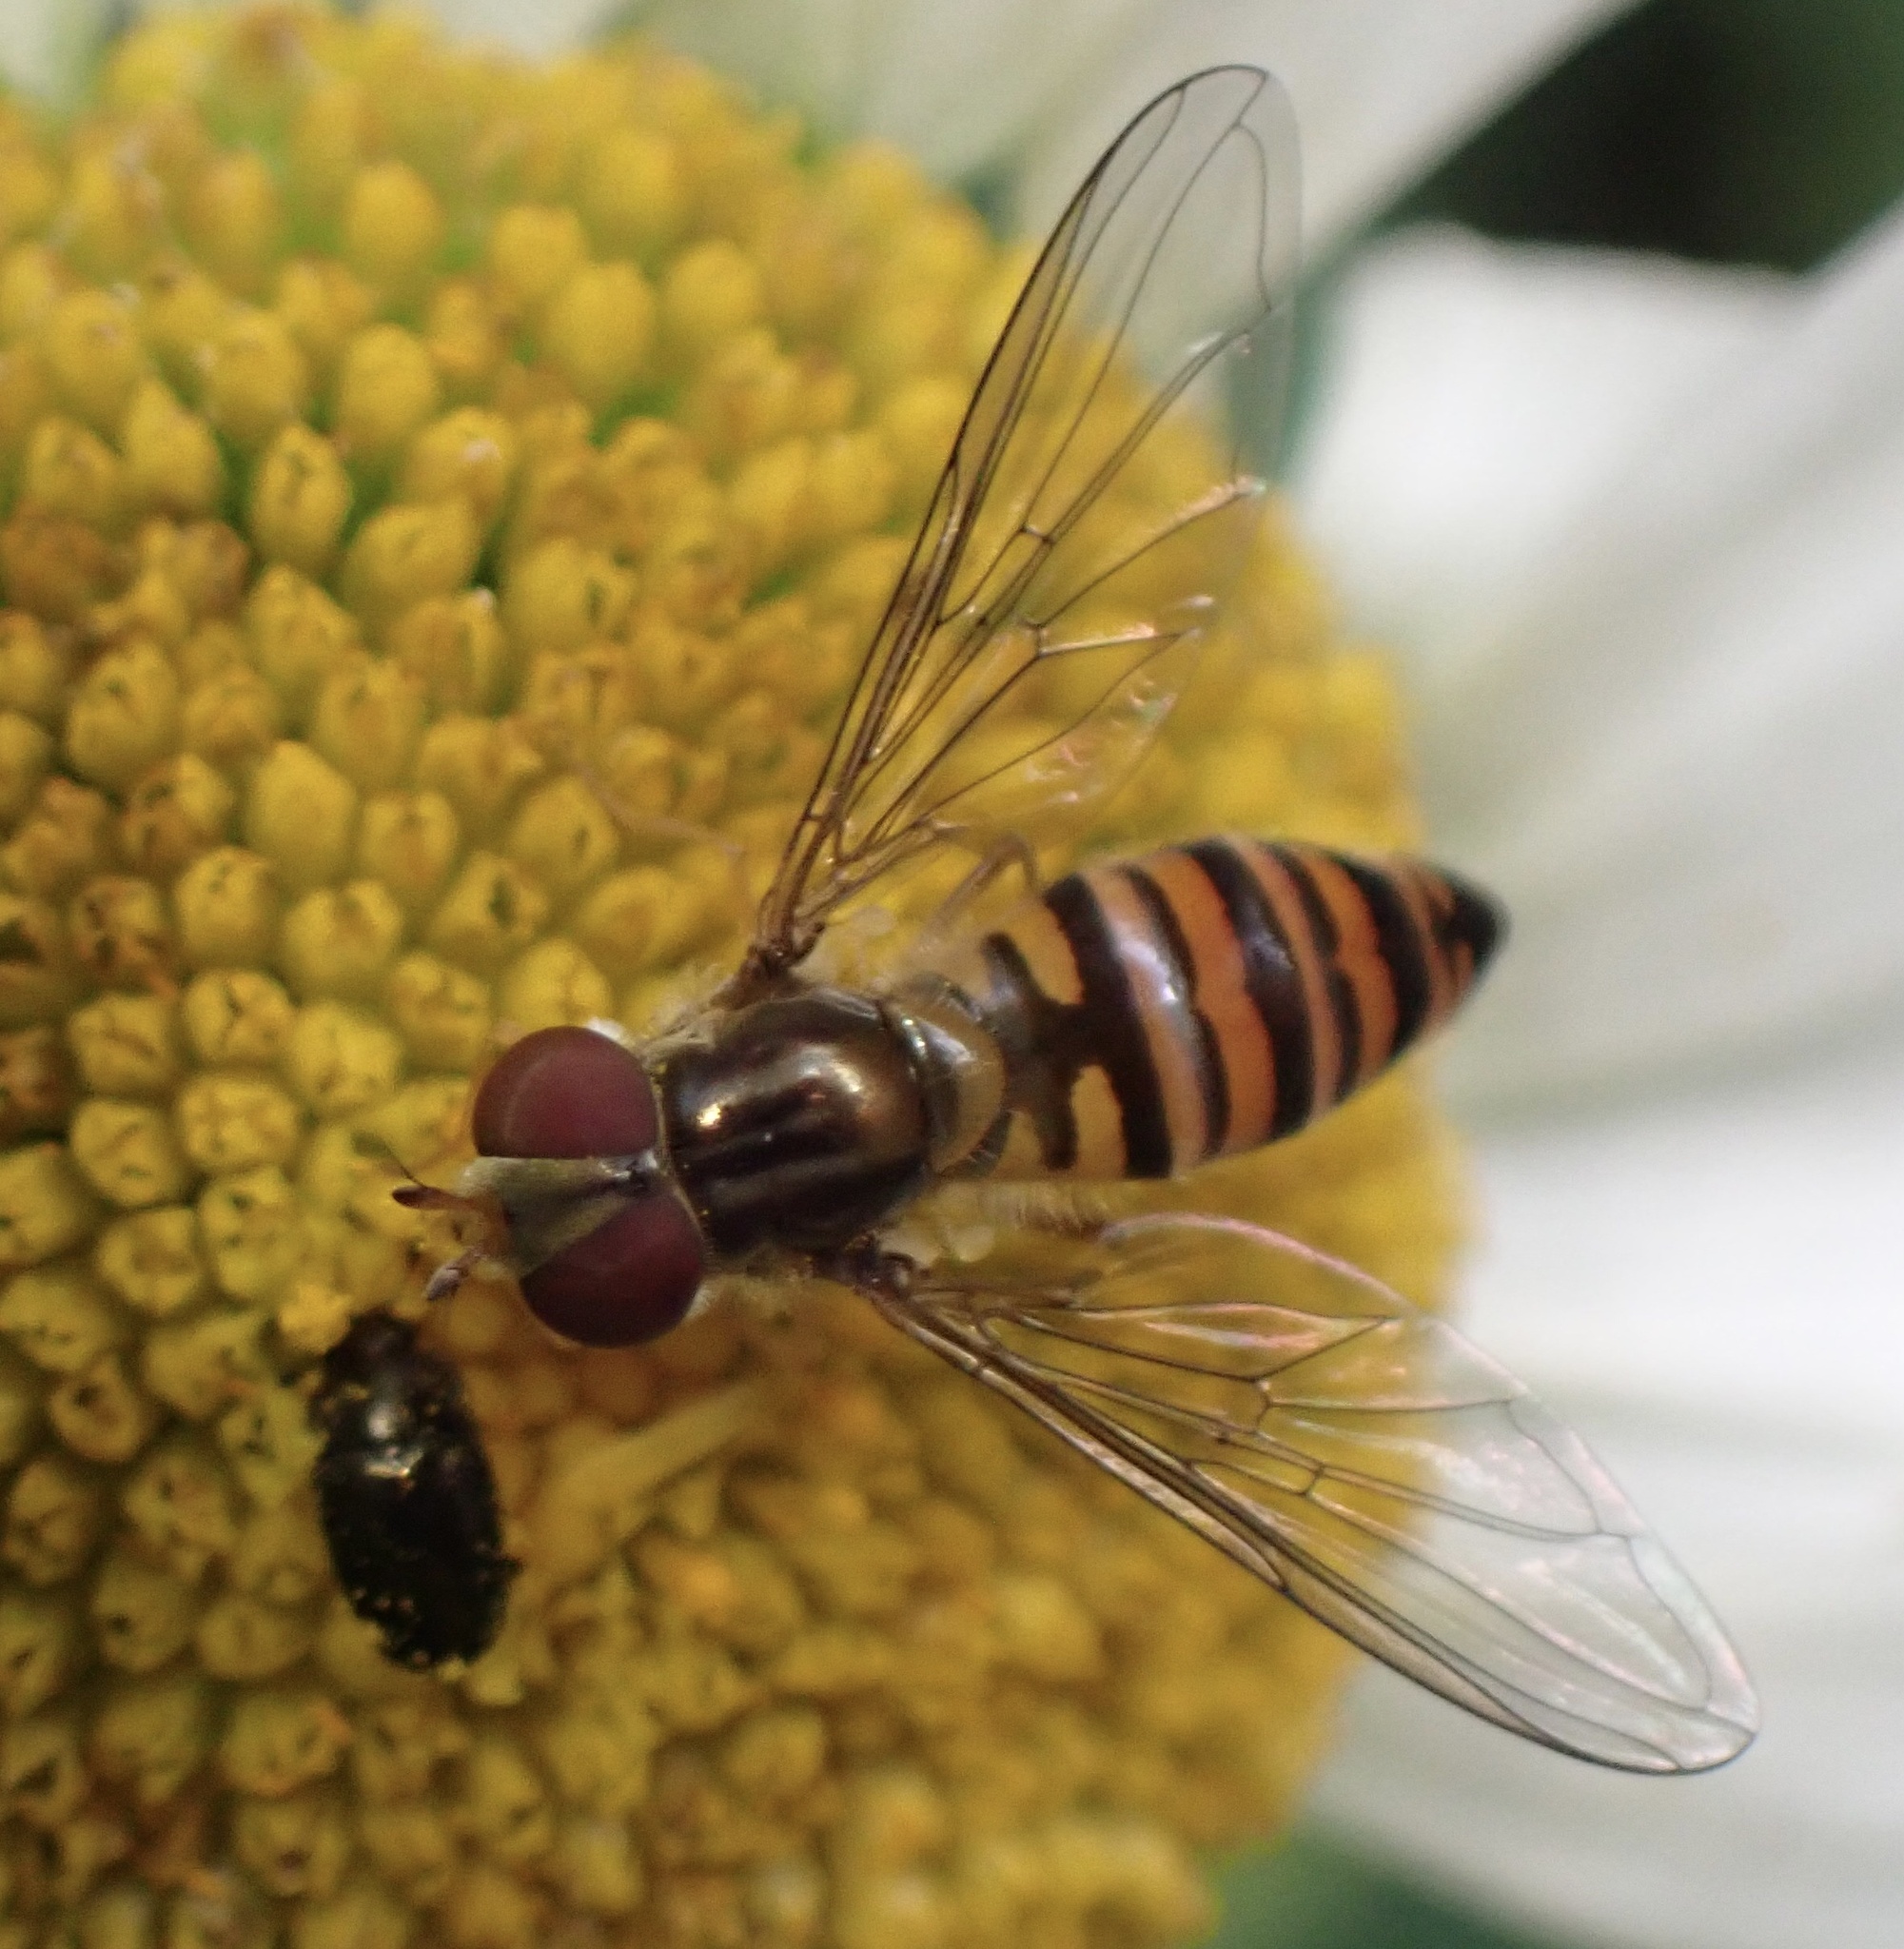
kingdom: Animalia
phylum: Arthropoda
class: Insecta
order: Diptera
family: Syrphidae
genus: Episyrphus
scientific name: Episyrphus balteatus
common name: Marmalade hoverfly
